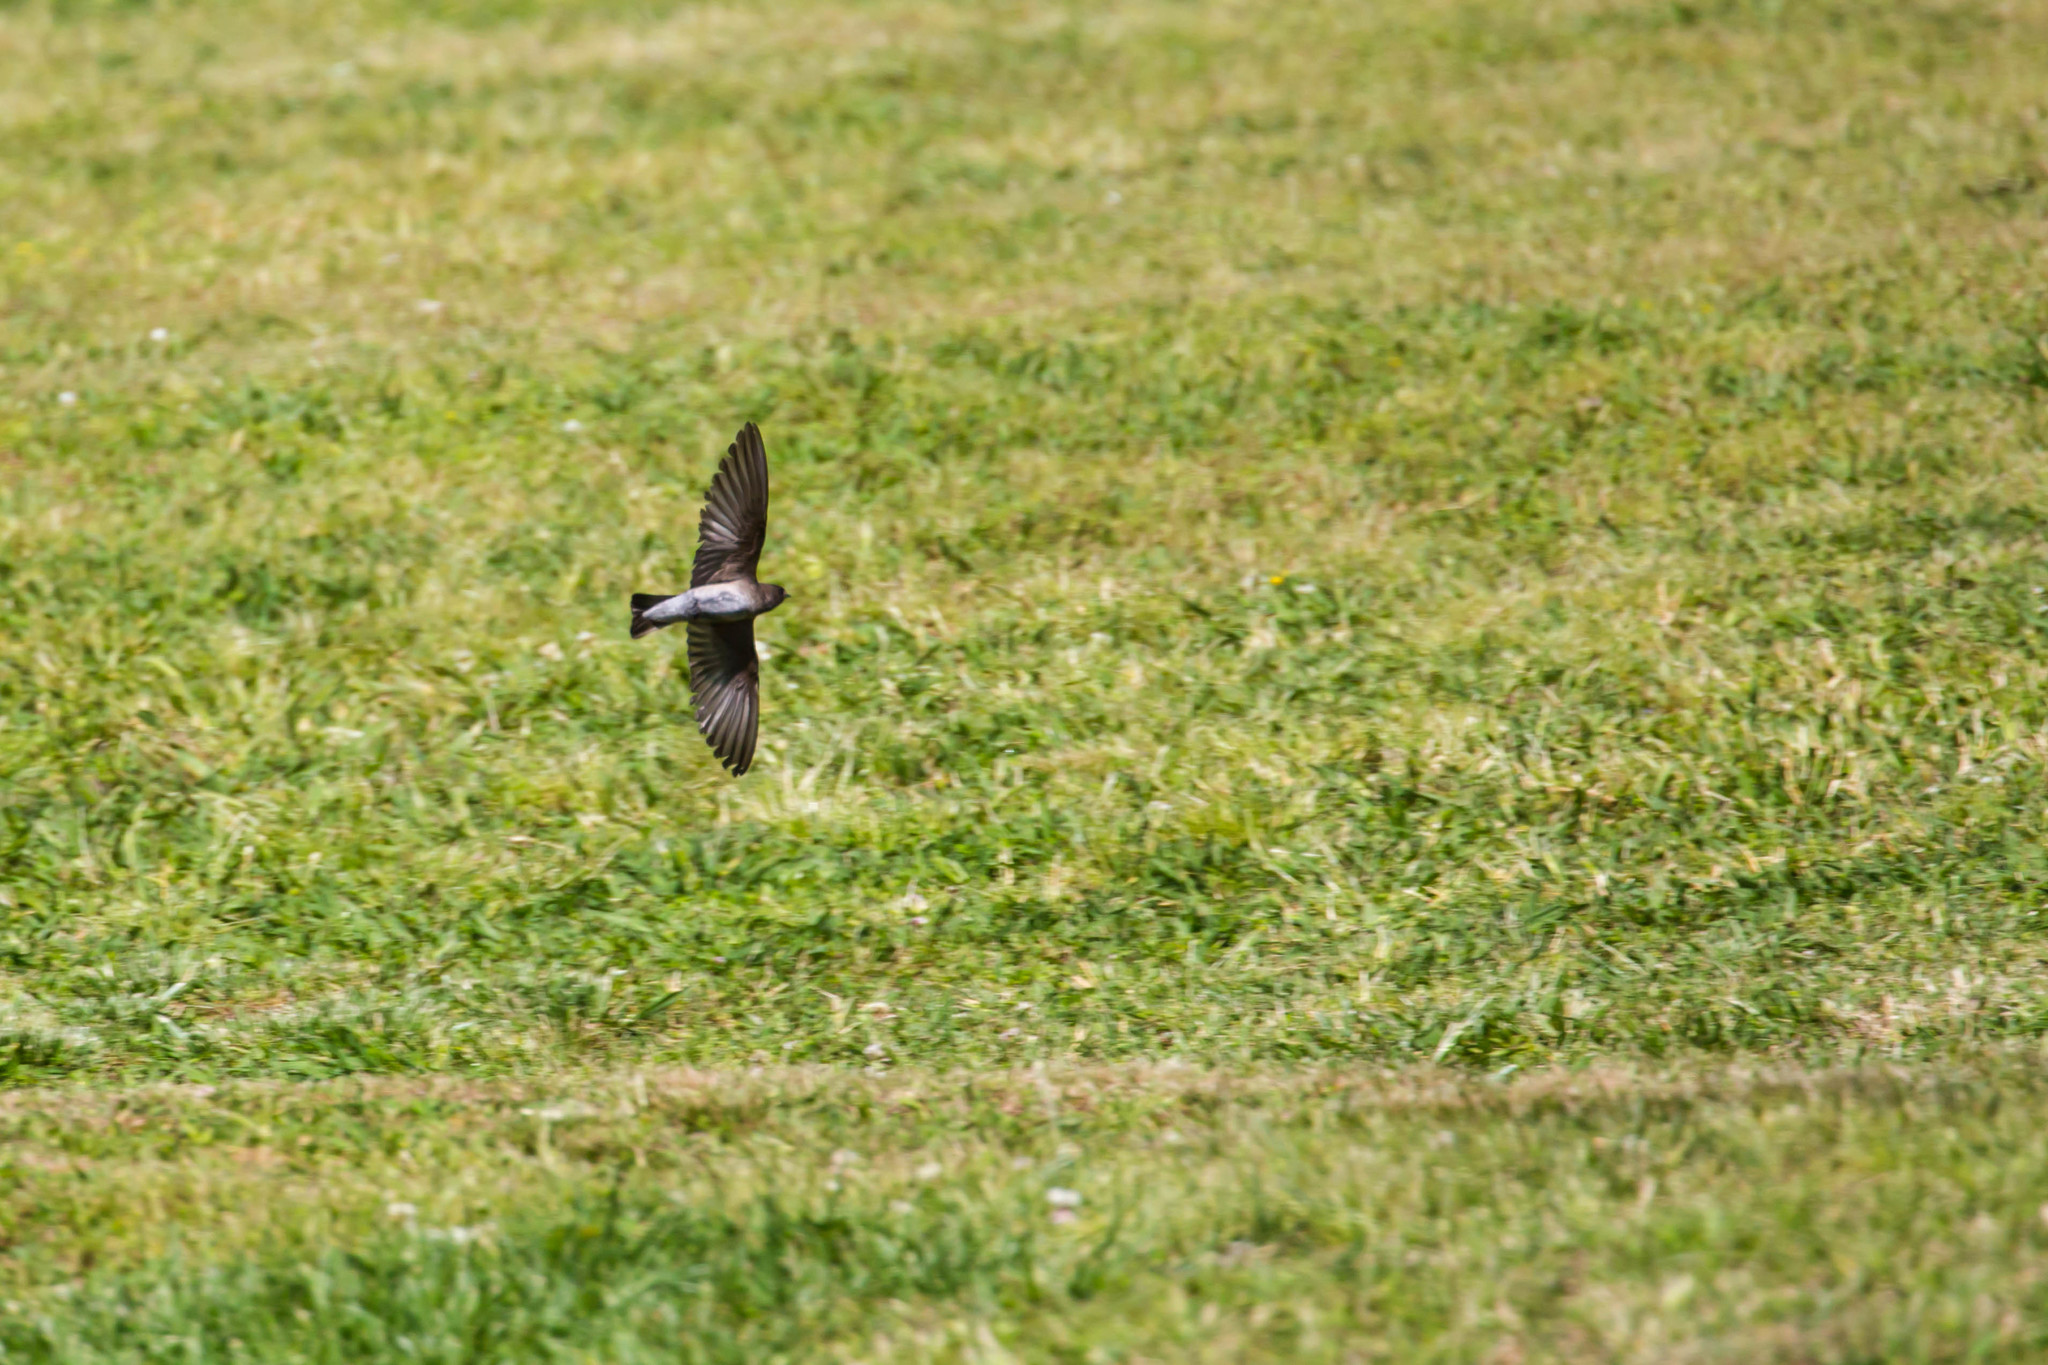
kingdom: Animalia
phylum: Chordata
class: Aves
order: Passeriformes
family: Hirundinidae
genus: Stelgidopteryx
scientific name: Stelgidopteryx serripennis
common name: Northern rough-winged swallow
